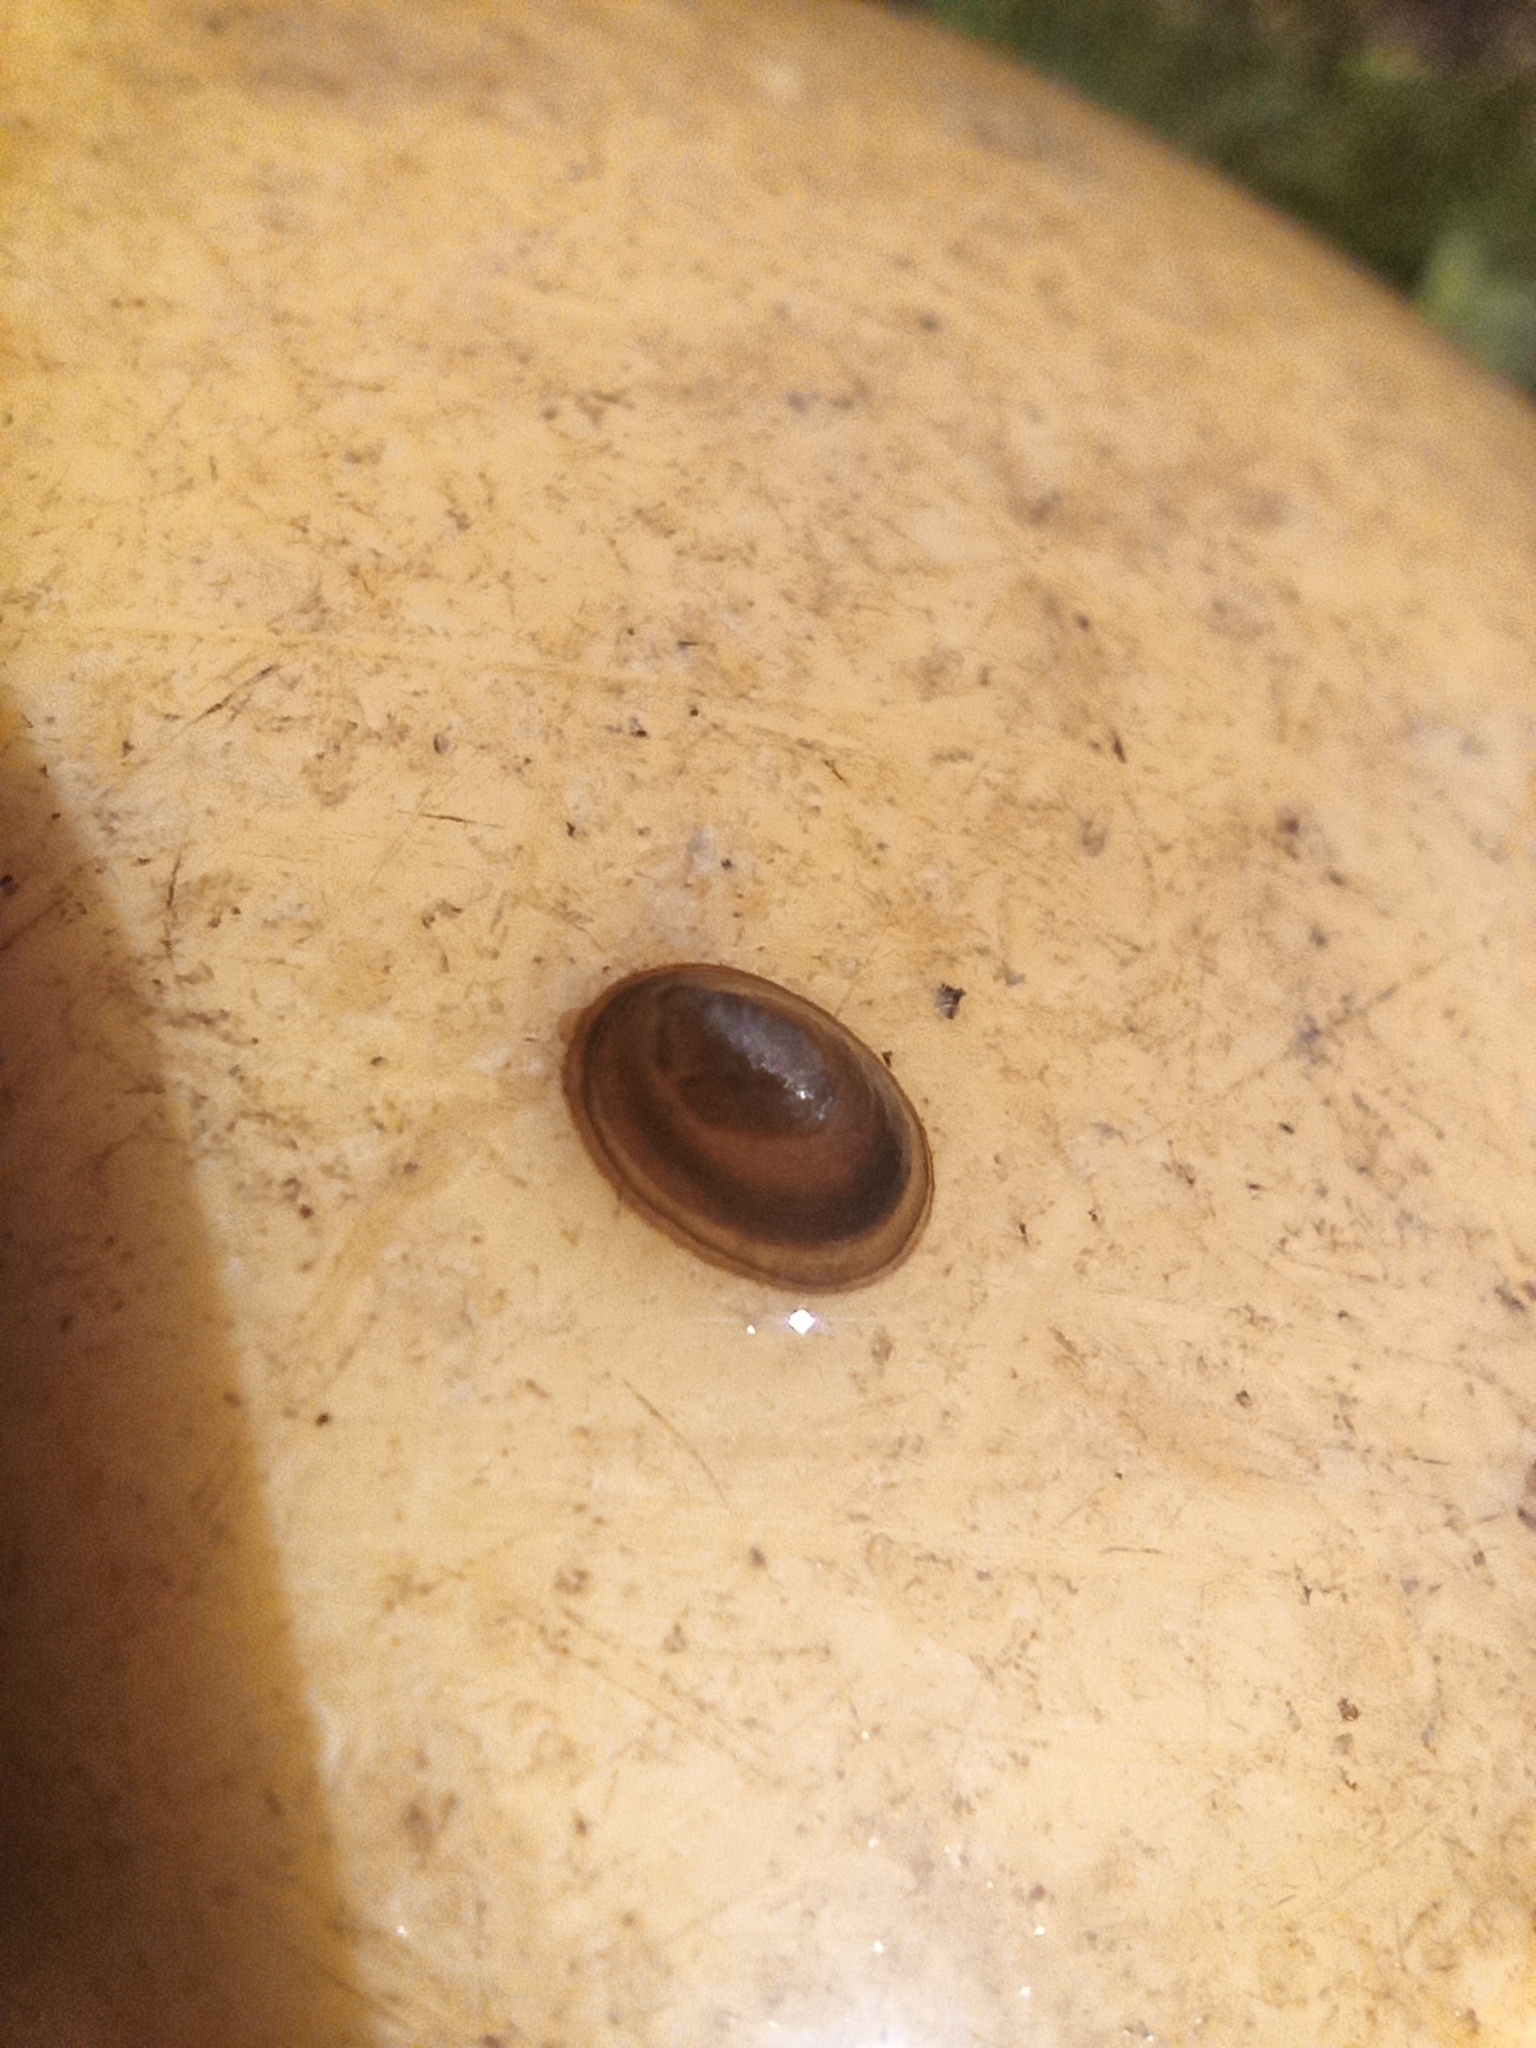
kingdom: Animalia
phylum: Mollusca
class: Gastropoda
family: Planorbidae
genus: Ancylus
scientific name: Ancylus fluviatilis
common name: River limpet
